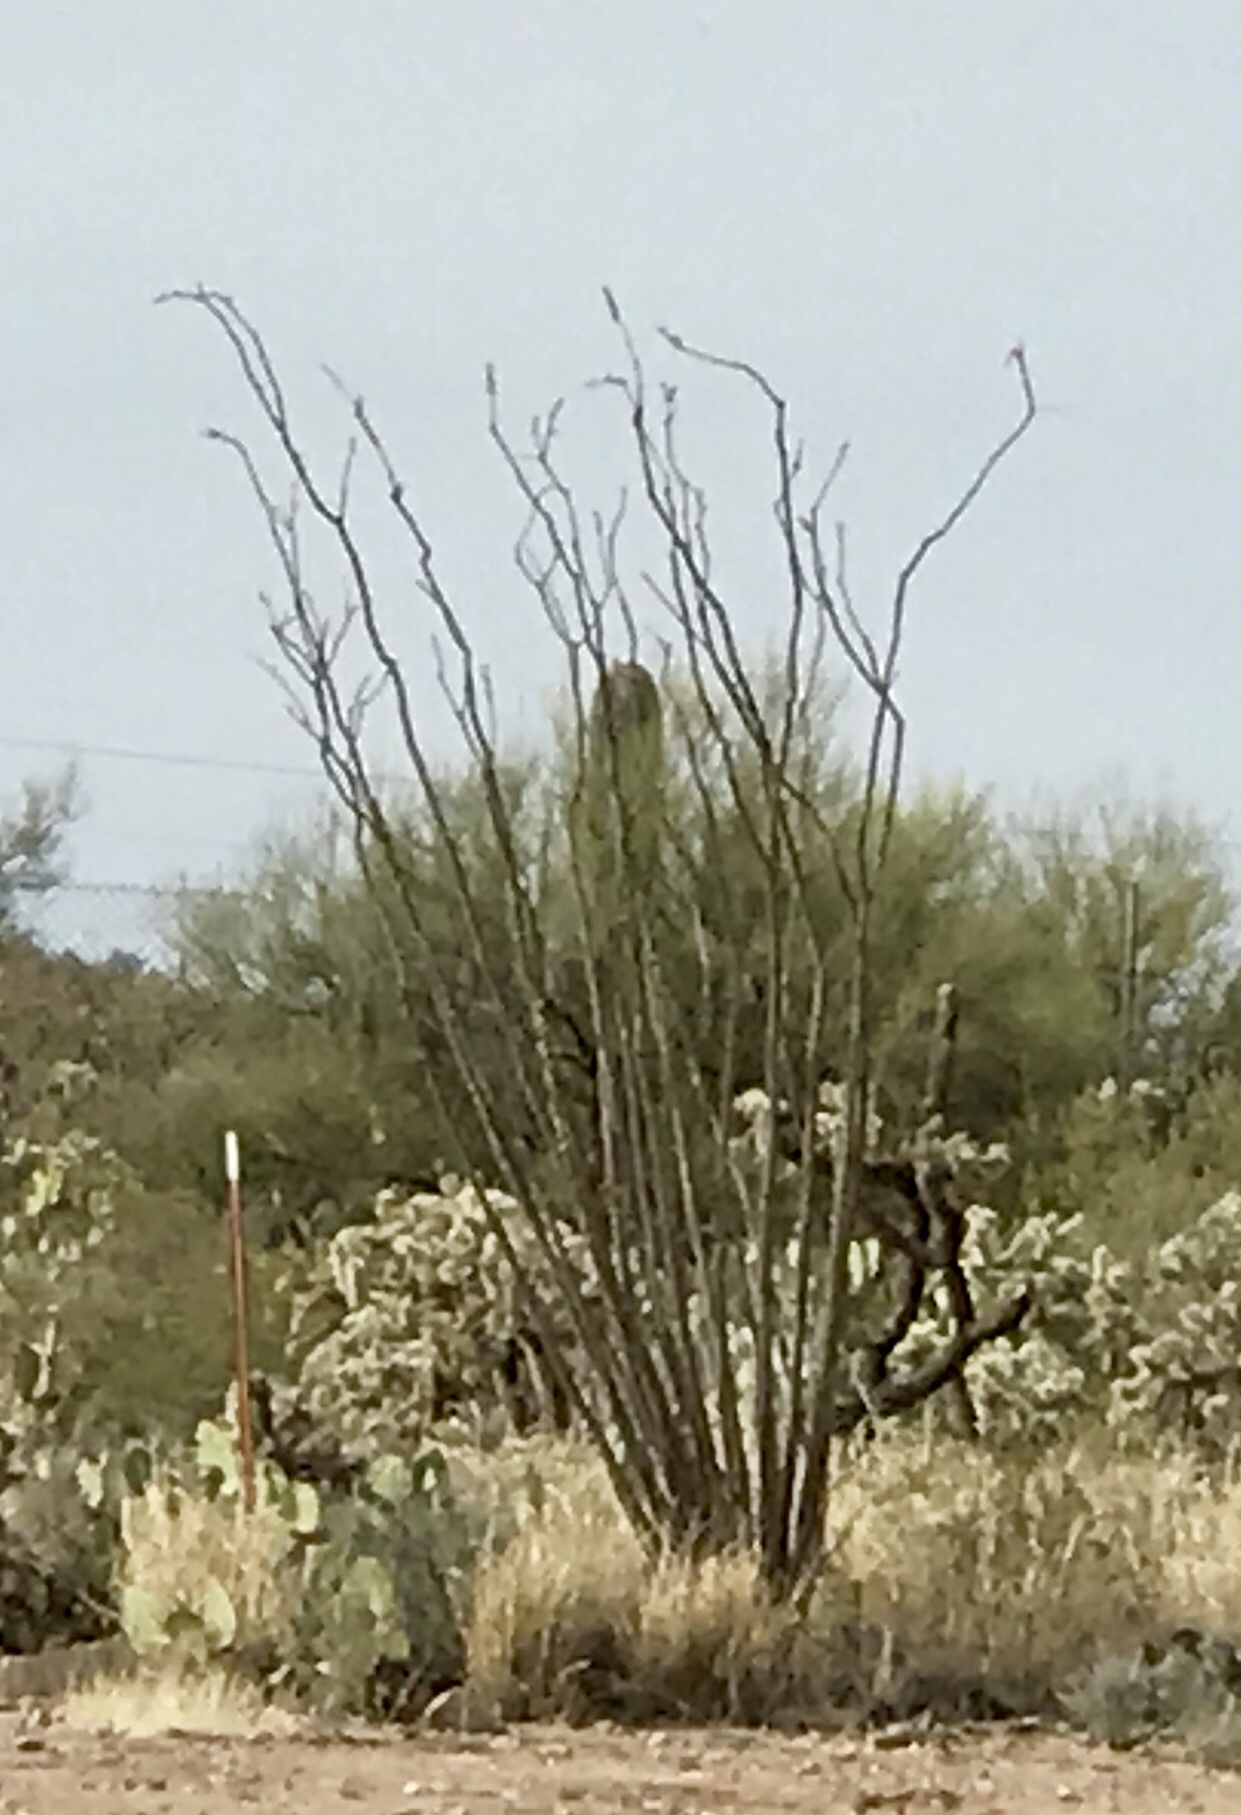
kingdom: Plantae
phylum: Tracheophyta
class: Magnoliopsida
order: Ericales
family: Fouquieriaceae
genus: Fouquieria
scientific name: Fouquieria splendens
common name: Vine-cactus
